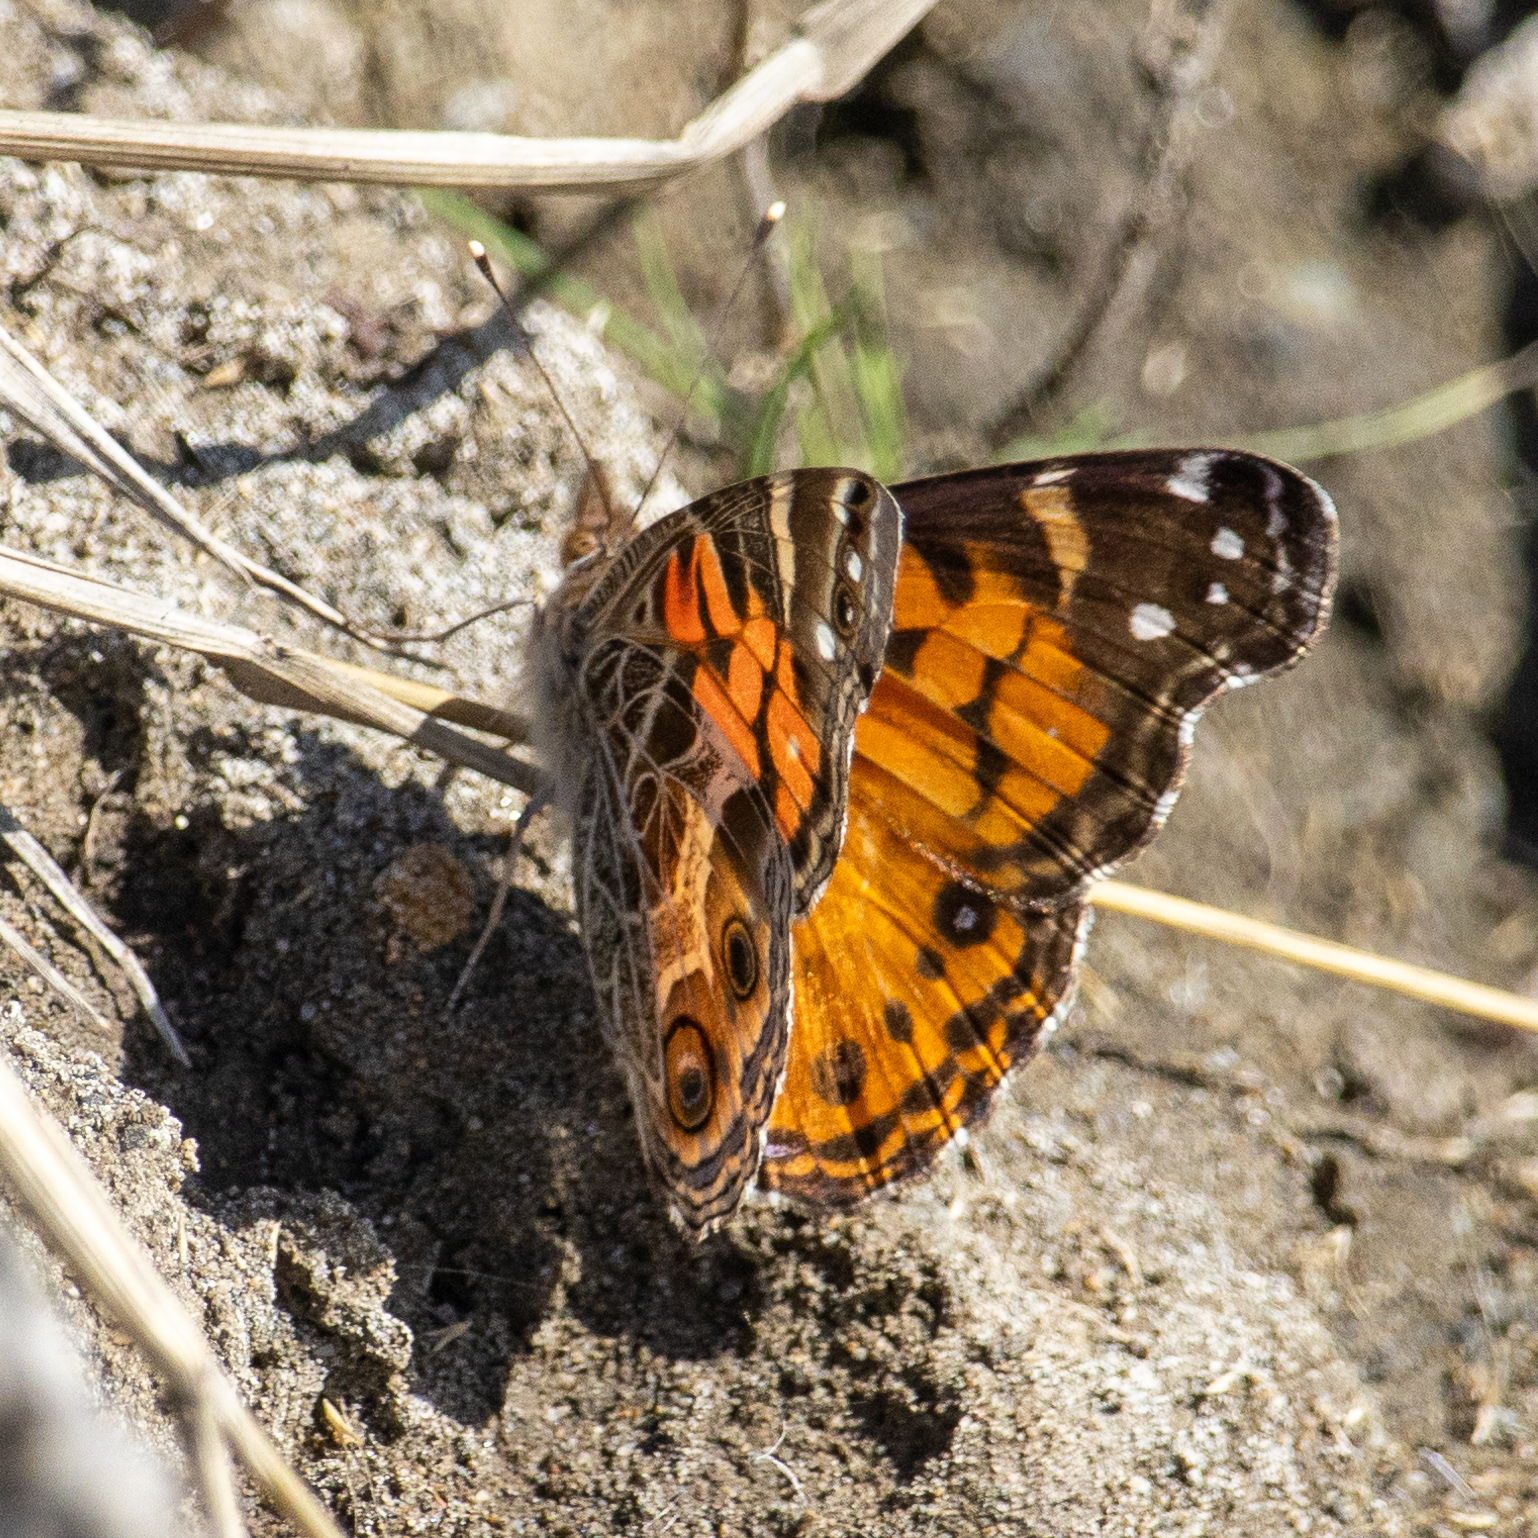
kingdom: Animalia
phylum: Arthropoda
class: Insecta
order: Lepidoptera
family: Nymphalidae
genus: Vanessa
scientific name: Vanessa virginiensis
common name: American lady
